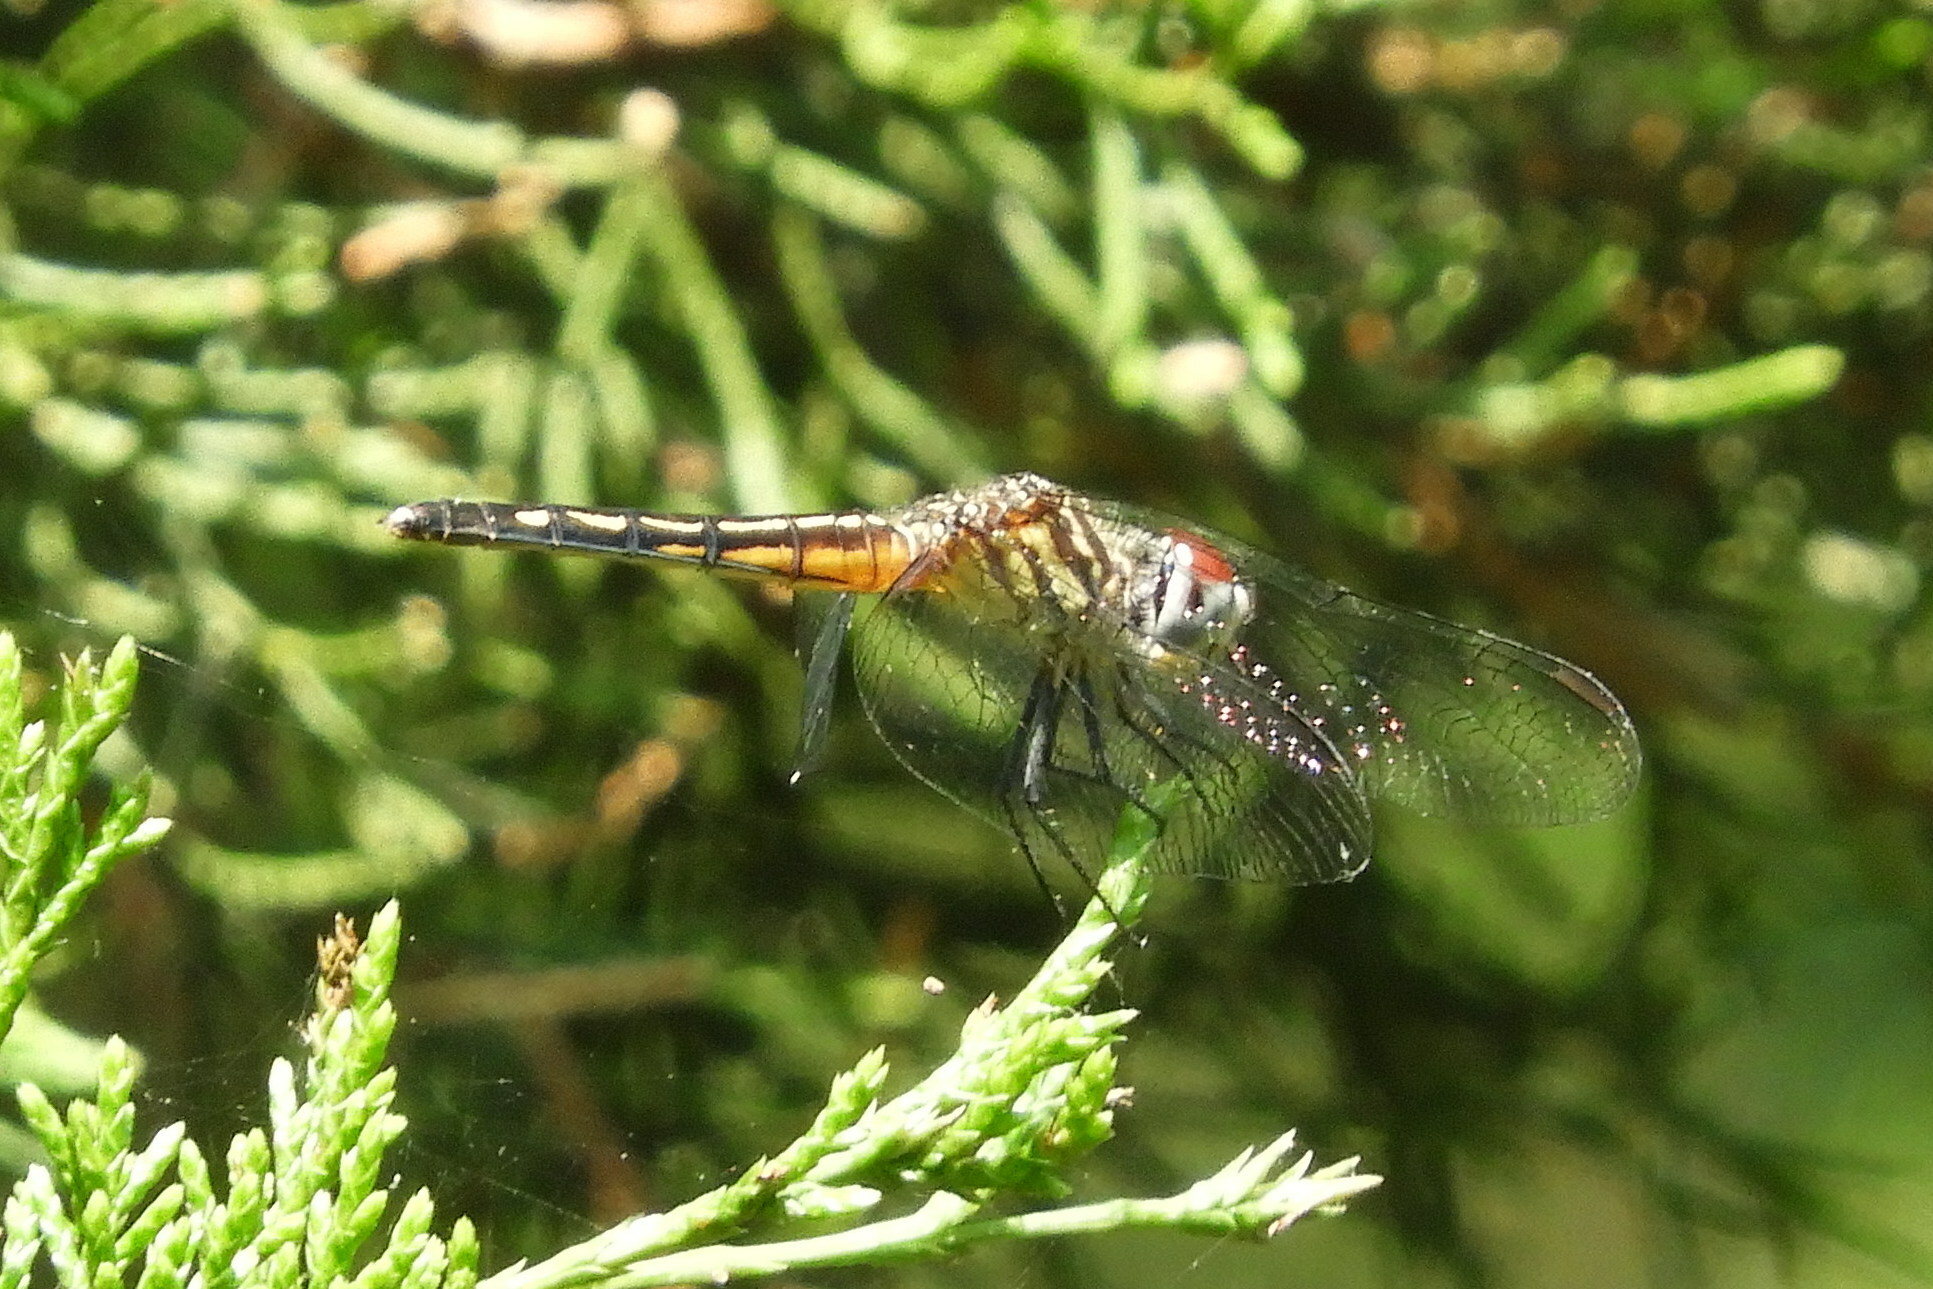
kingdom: Animalia
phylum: Arthropoda
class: Insecta
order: Odonata
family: Libellulidae
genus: Pachydiplax
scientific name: Pachydiplax longipennis
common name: Blue dasher
